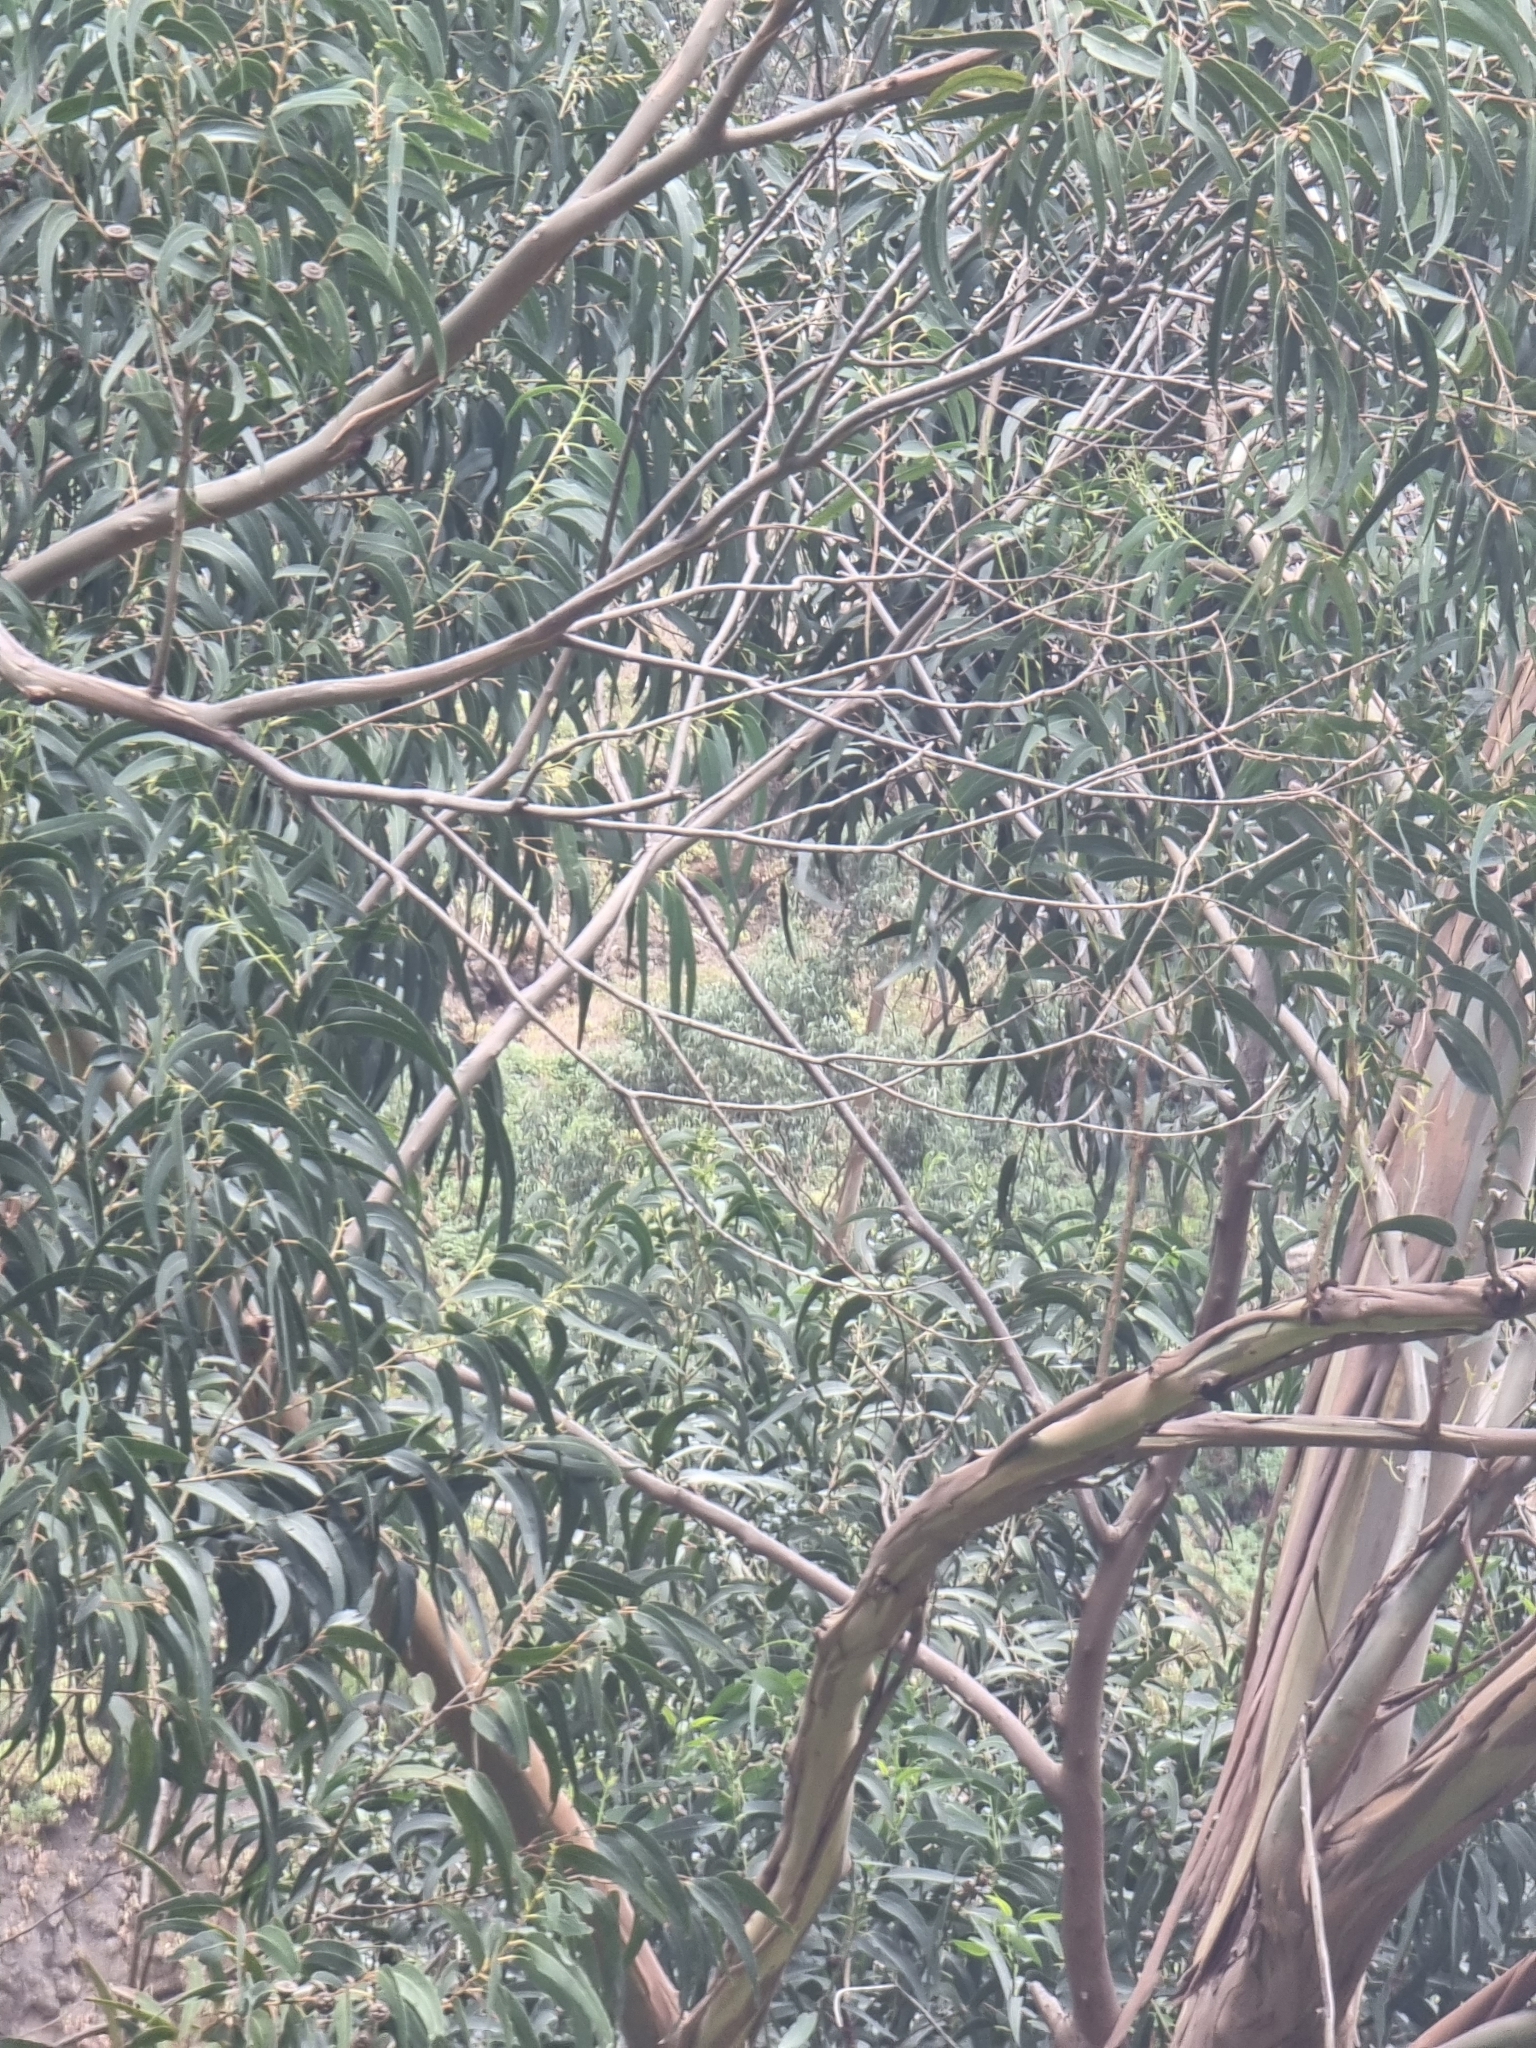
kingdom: Plantae
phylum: Tracheophyta
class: Magnoliopsida
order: Myrtales
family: Myrtaceae
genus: Eucalyptus
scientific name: Eucalyptus globulus
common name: Southern blue-gum
